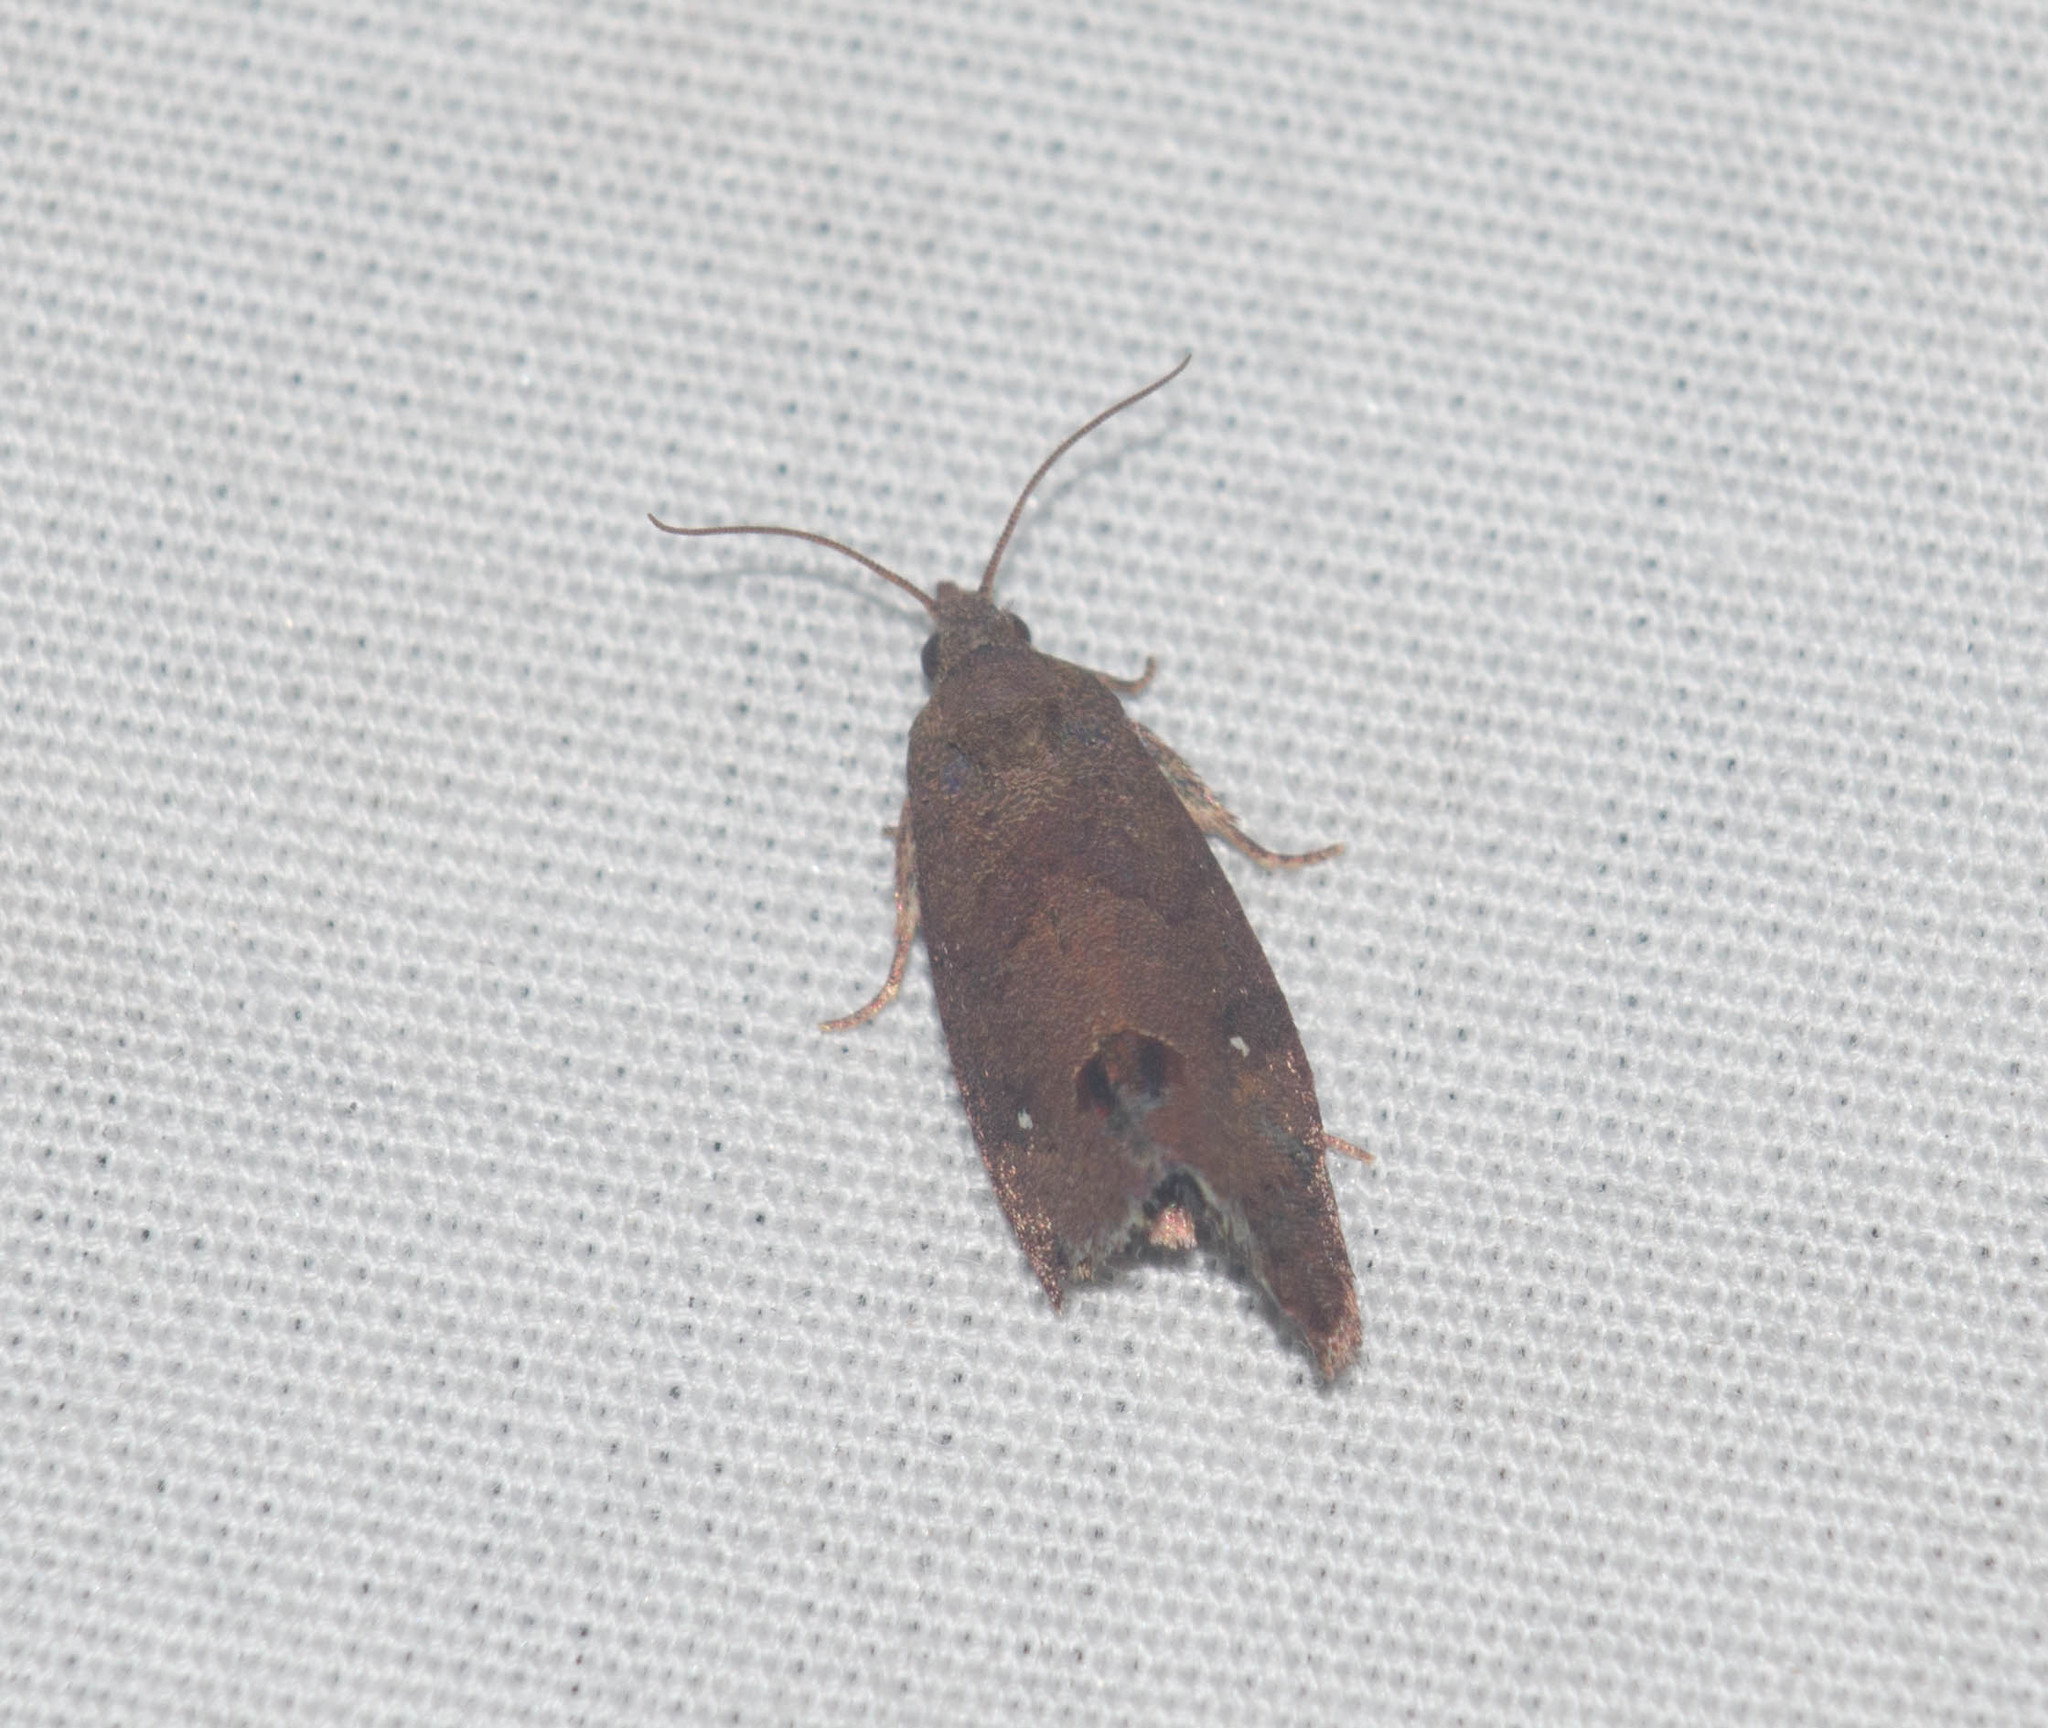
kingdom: Animalia
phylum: Arthropoda
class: Insecta
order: Lepidoptera
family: Tortricidae
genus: Cryptophlebia
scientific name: Cryptophlebia illepida
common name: Moth
